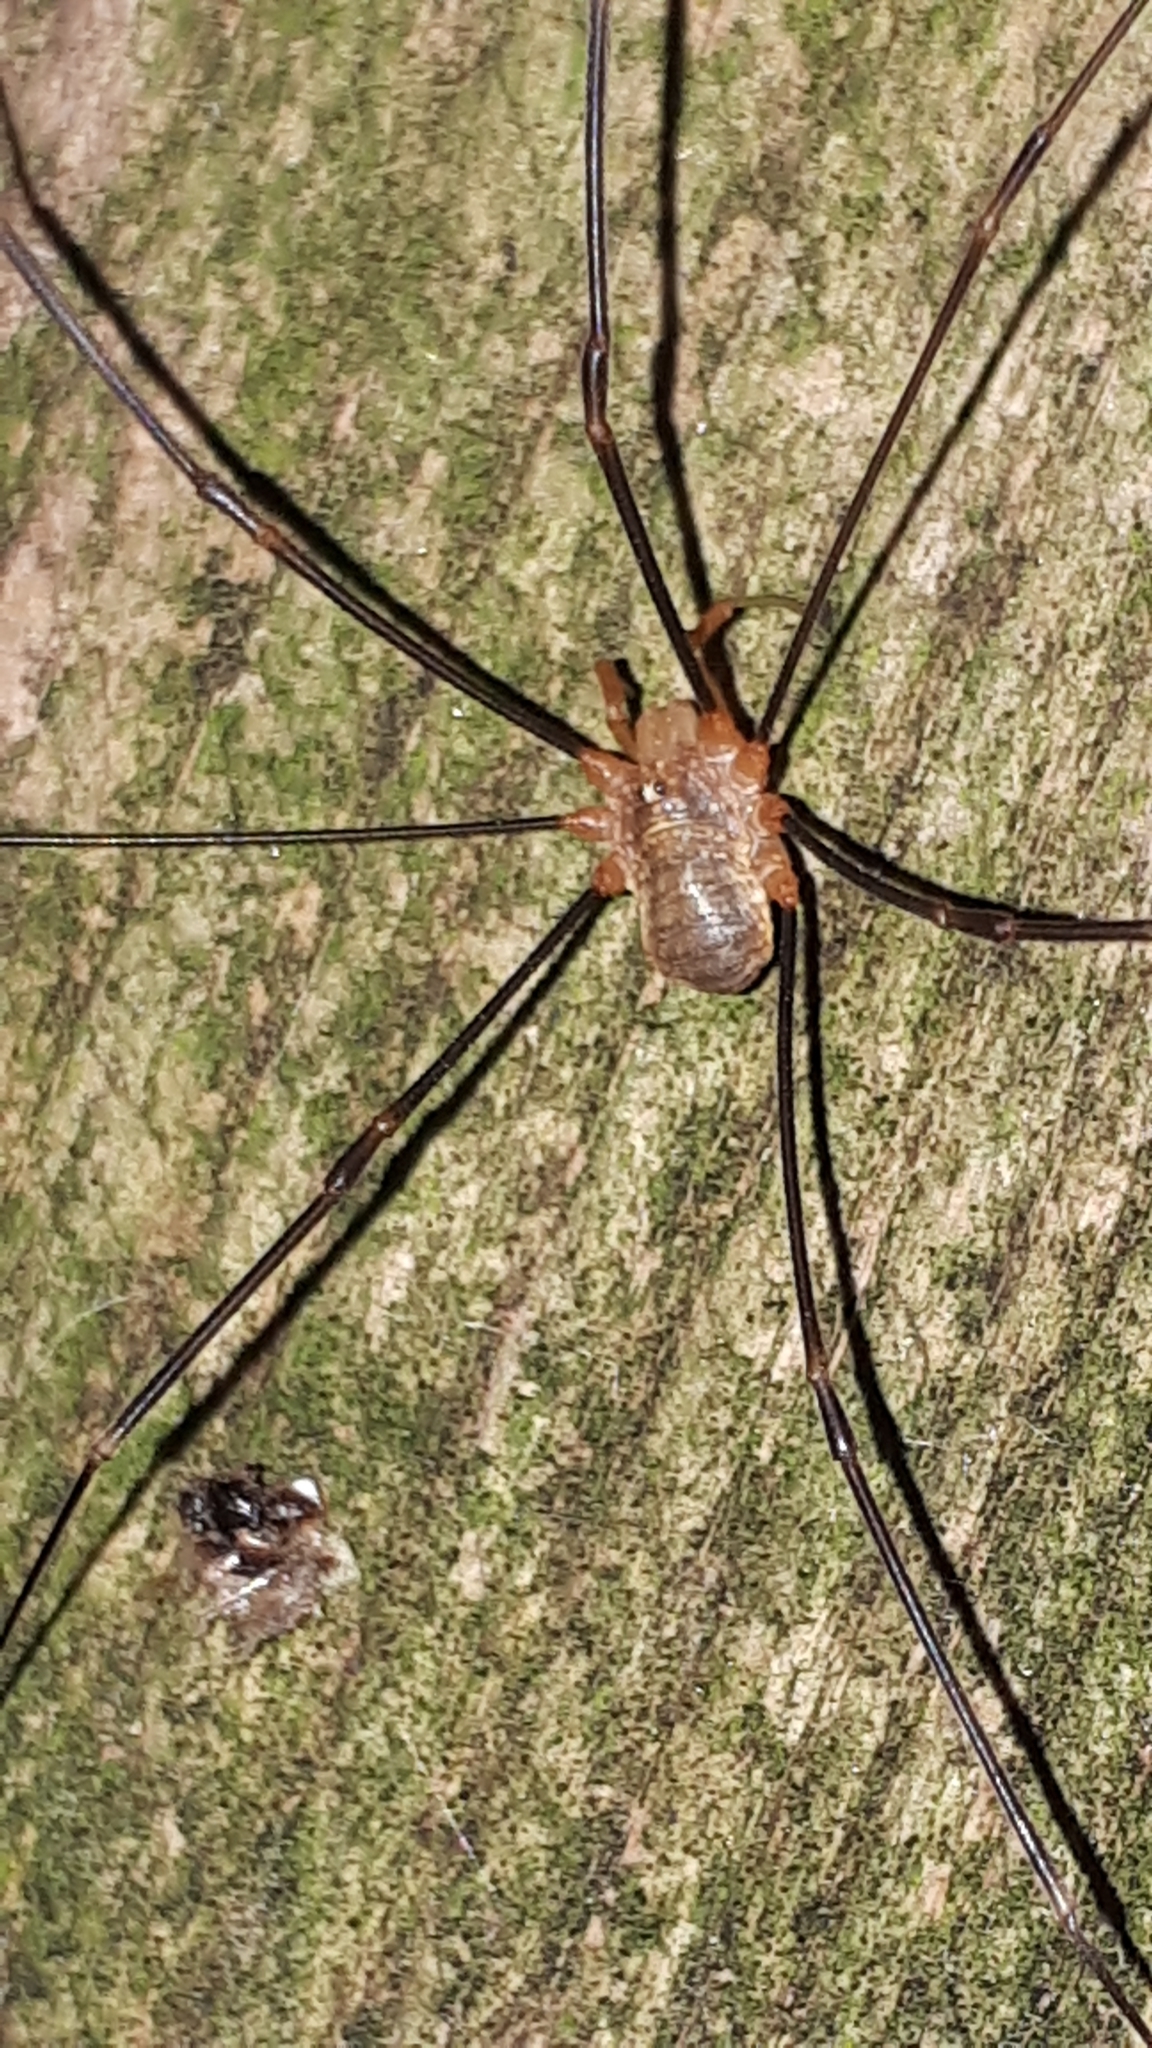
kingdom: Animalia
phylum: Arthropoda
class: Arachnida
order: Opiliones
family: Phalangiidae
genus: Opilio
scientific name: Opilio canestrinii
